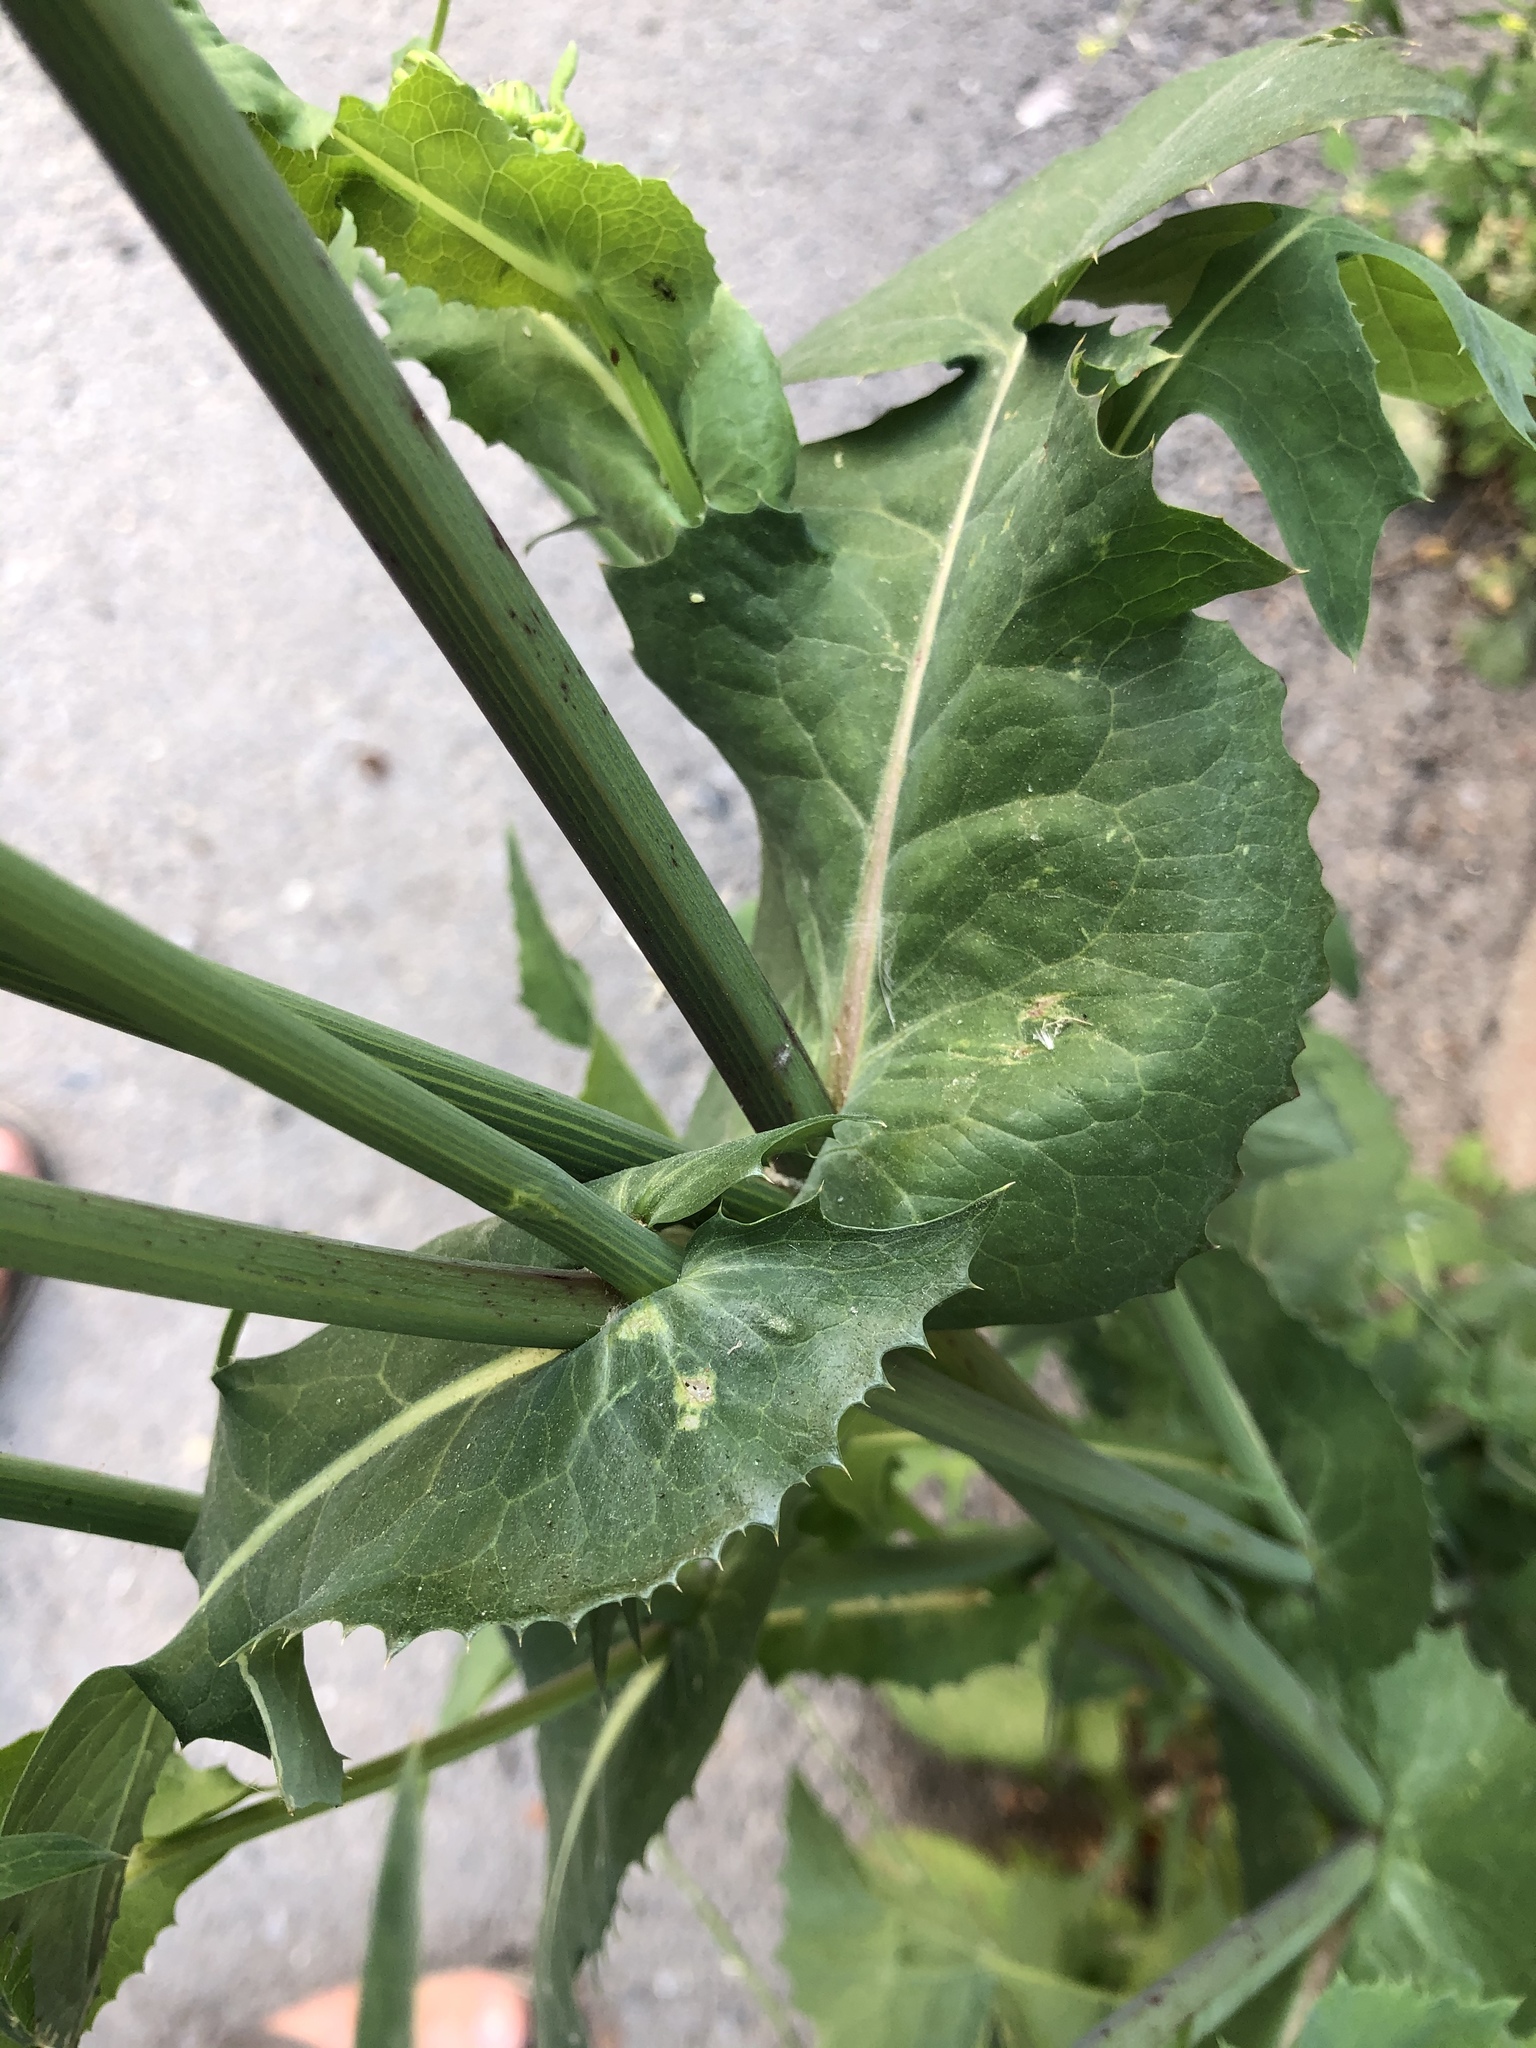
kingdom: Plantae
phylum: Tracheophyta
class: Magnoliopsida
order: Asterales
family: Asteraceae
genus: Sonchus
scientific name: Sonchus oleraceus
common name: Common sowthistle
